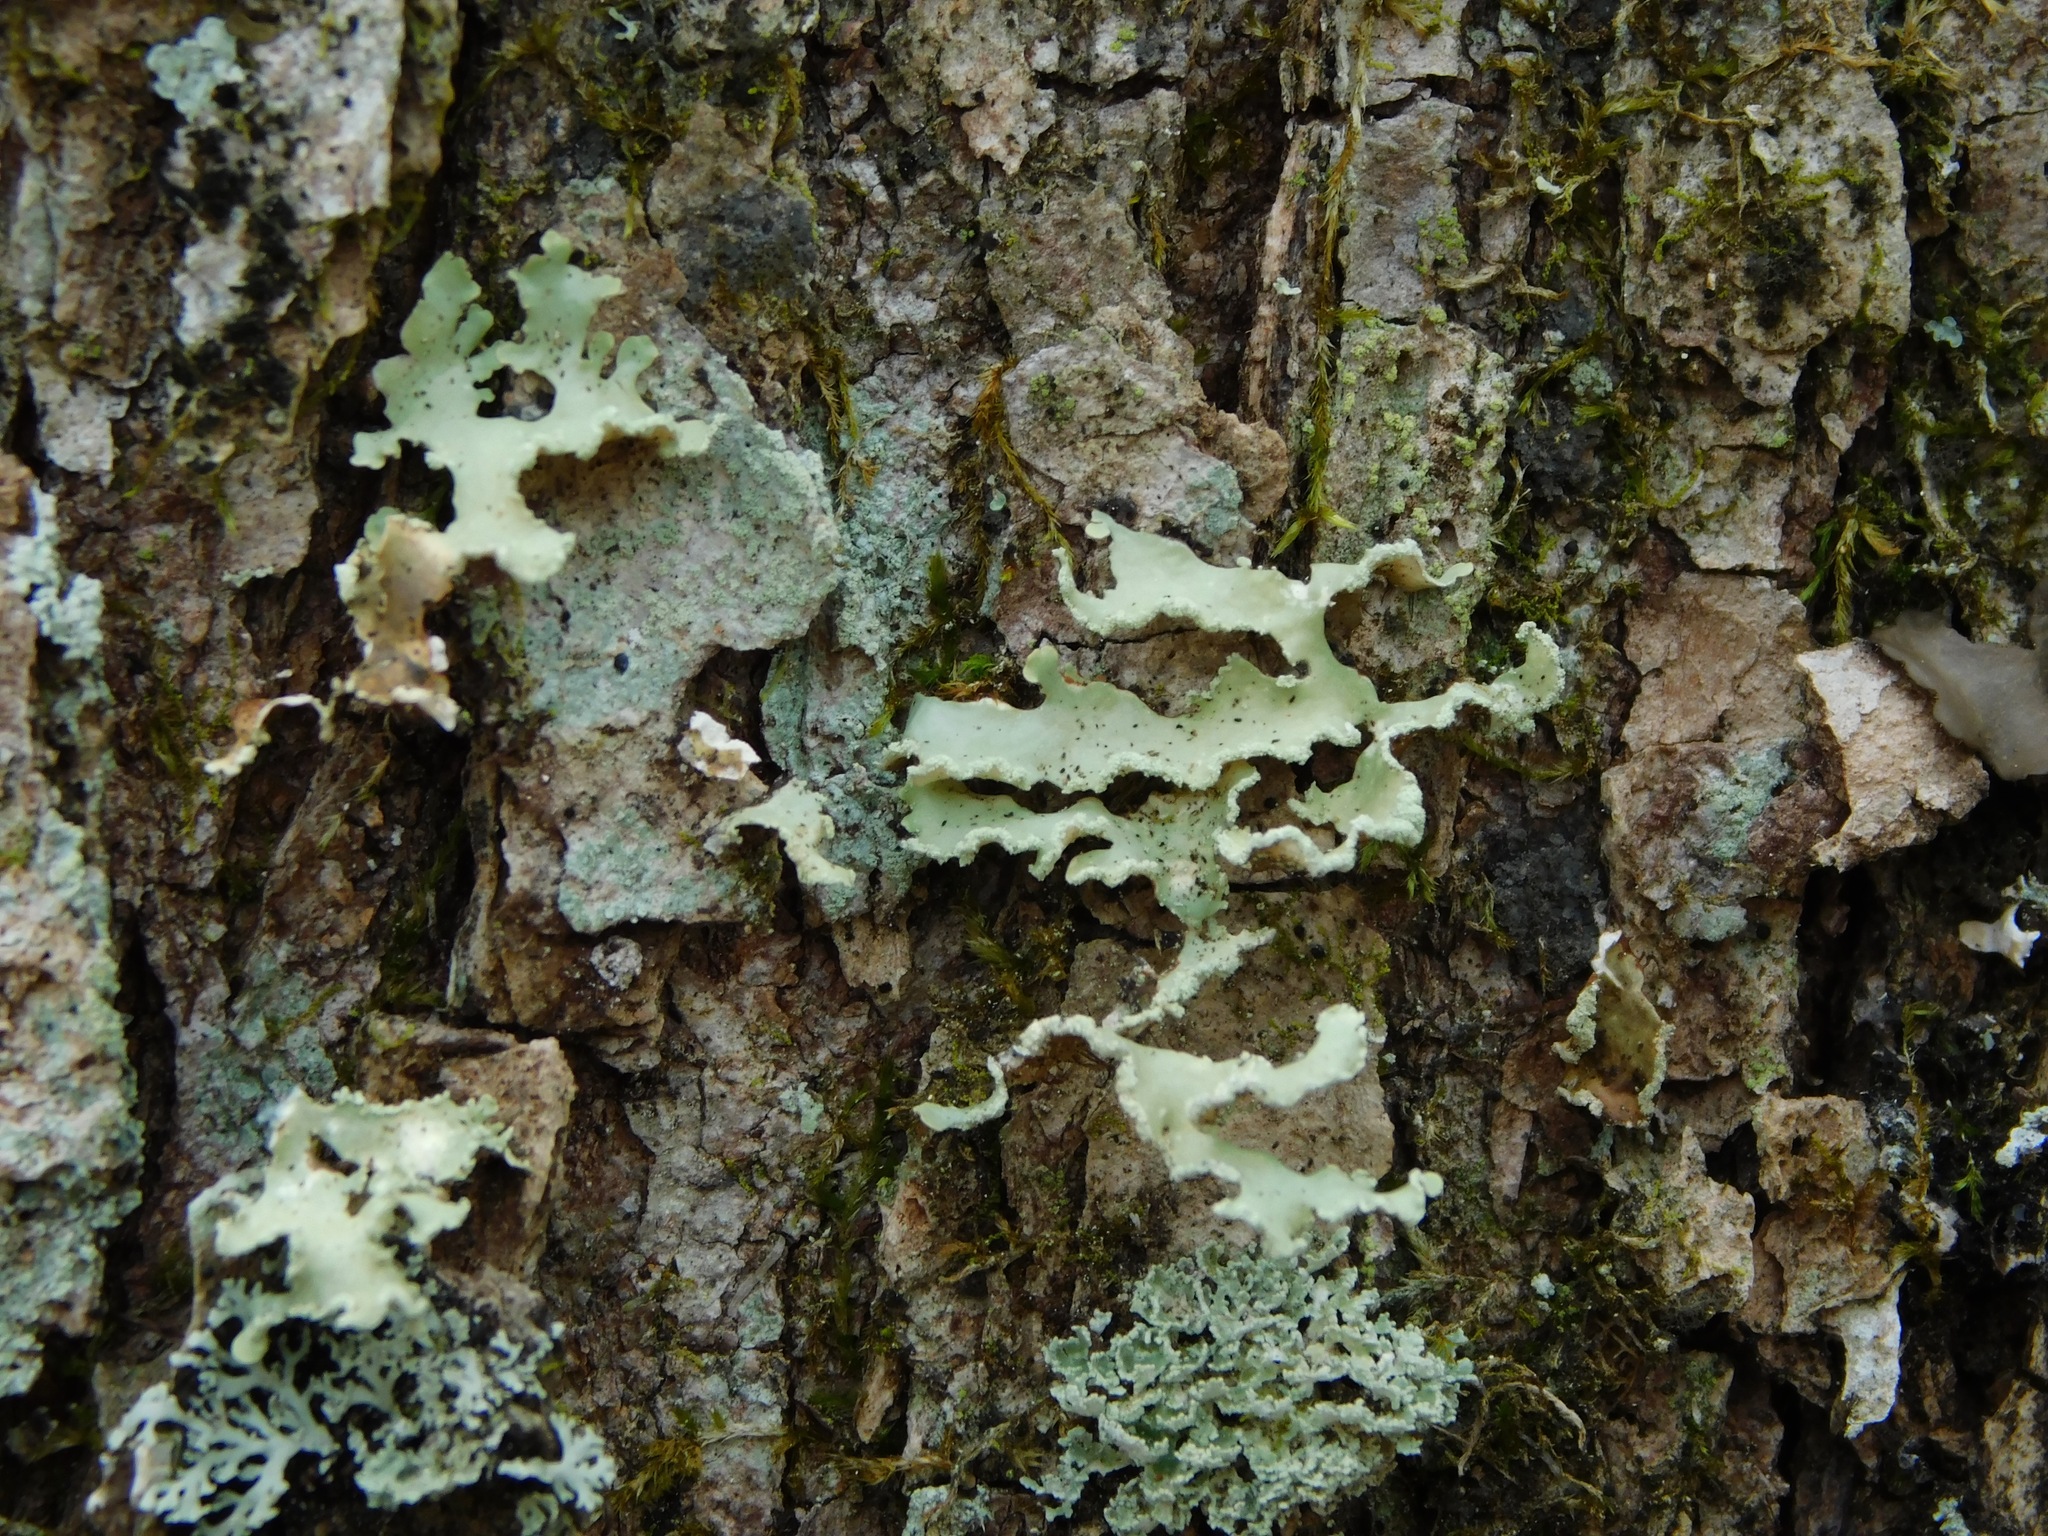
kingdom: Fungi
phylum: Ascomycota
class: Lecanoromycetes
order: Lecanorales
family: Parmeliaceae
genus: Usnocetraria
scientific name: Usnocetraria oakesiana
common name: Yellow ribbon lichen
